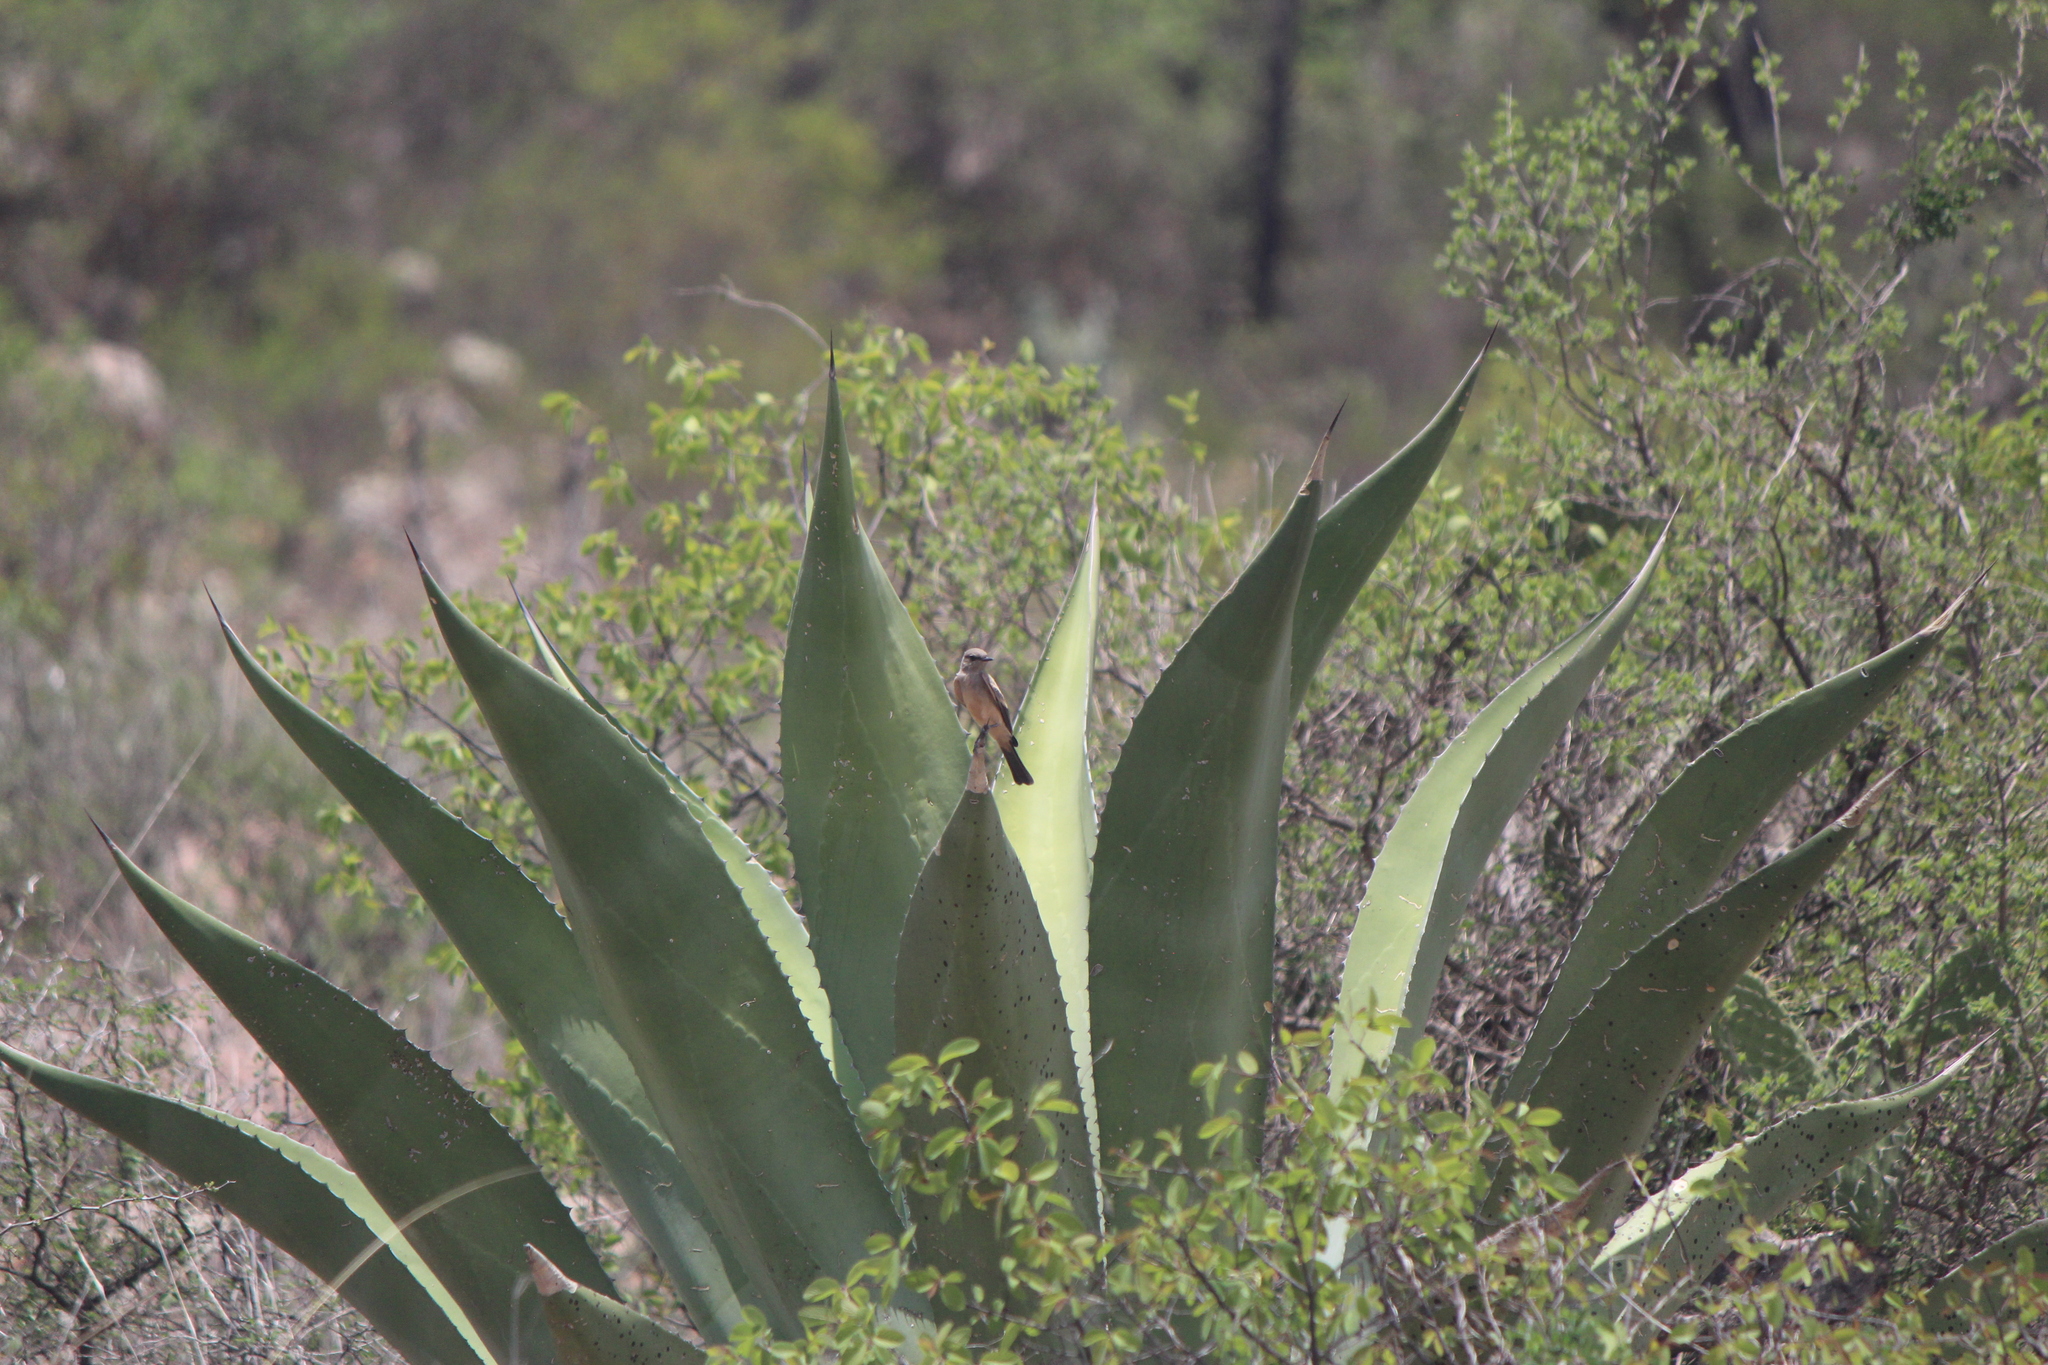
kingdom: Animalia
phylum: Chordata
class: Aves
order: Passeriformes
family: Tyrannidae
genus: Sayornis
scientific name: Sayornis saya
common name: Say's phoebe
